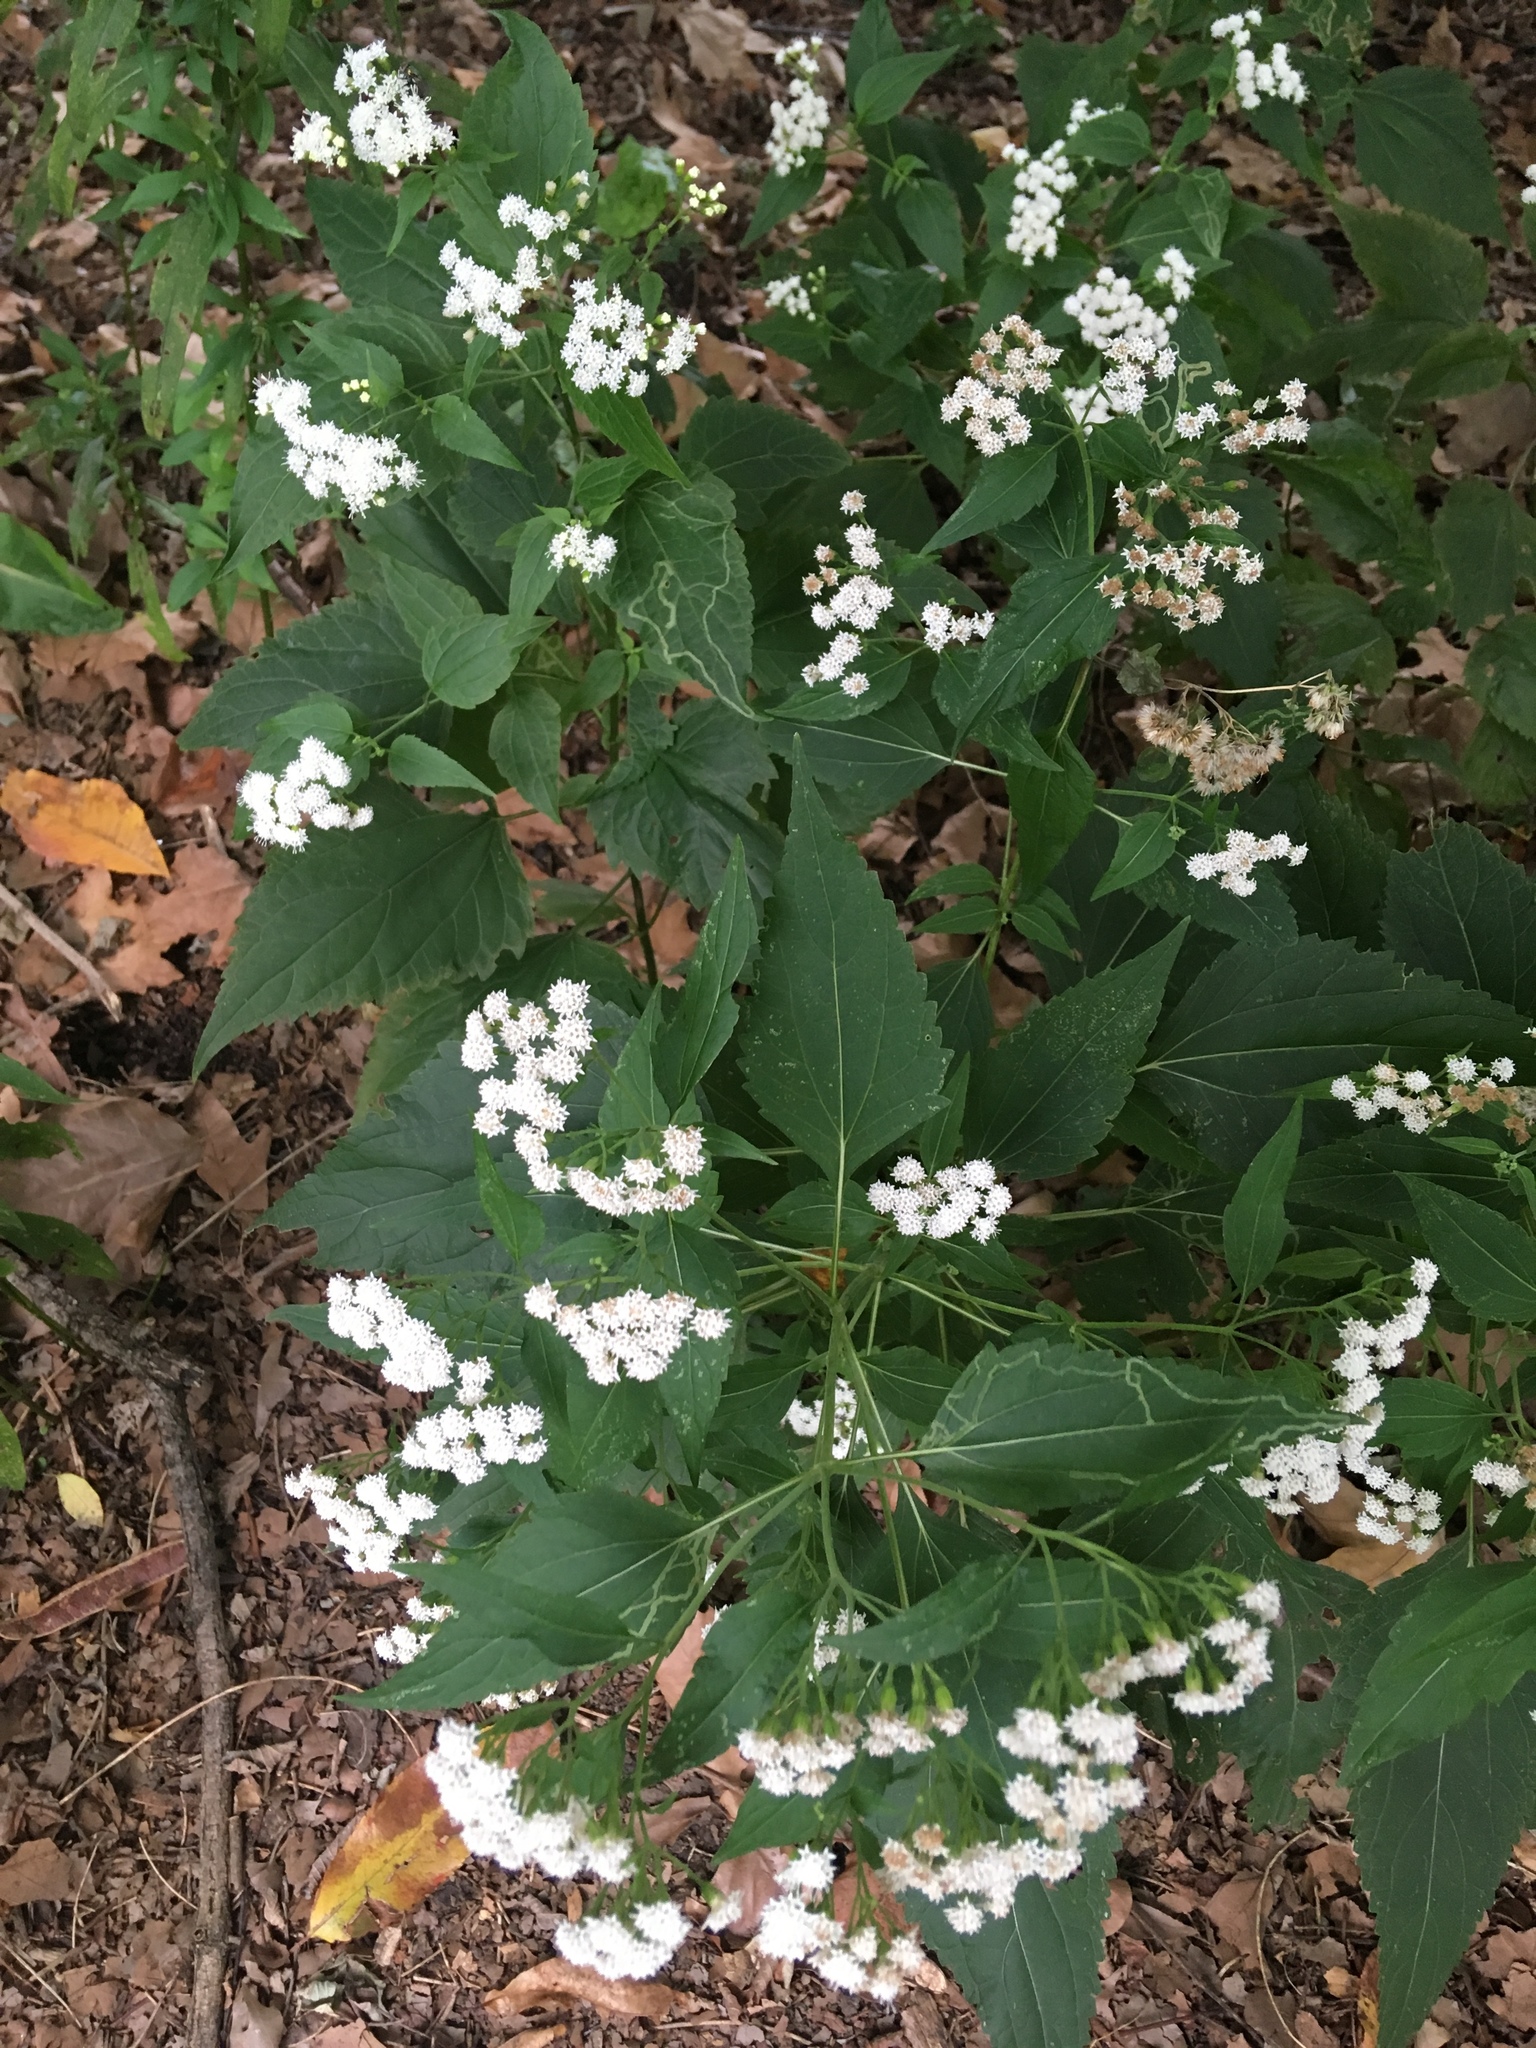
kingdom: Plantae
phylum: Tracheophyta
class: Magnoliopsida
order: Asterales
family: Asteraceae
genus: Ageratina
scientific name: Ageratina altissima
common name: White snakeroot
